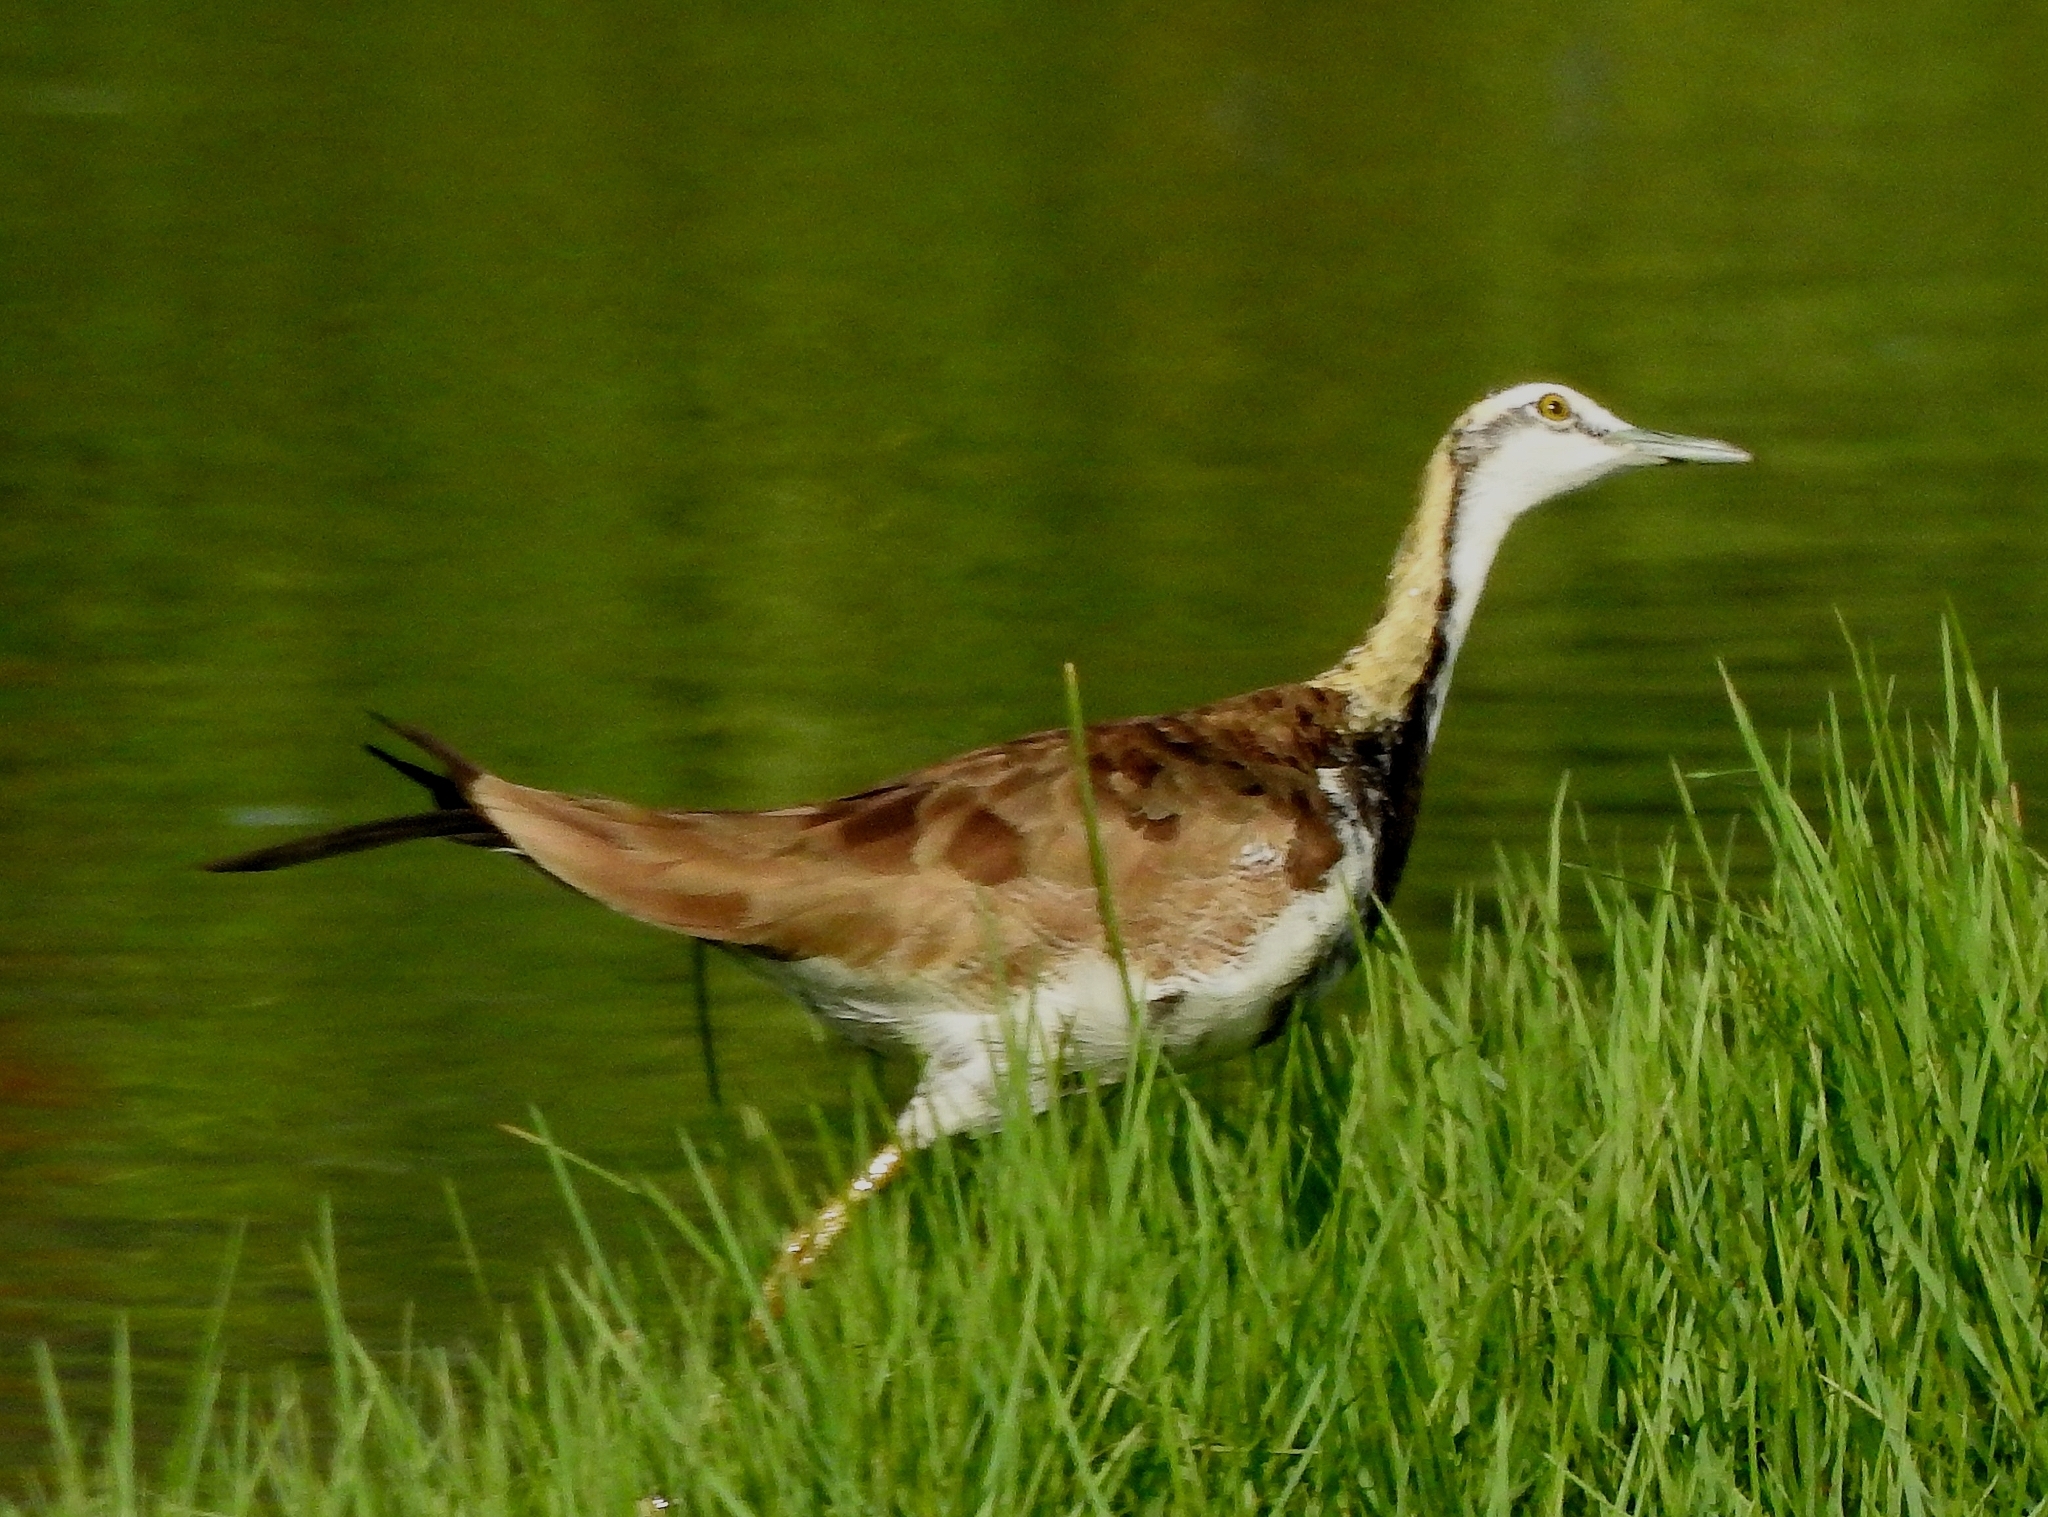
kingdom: Animalia
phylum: Chordata
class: Aves
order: Charadriiformes
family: Jacanidae
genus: Hydrophasianus
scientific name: Hydrophasianus chirurgus
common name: Pheasant-tailed jacana
